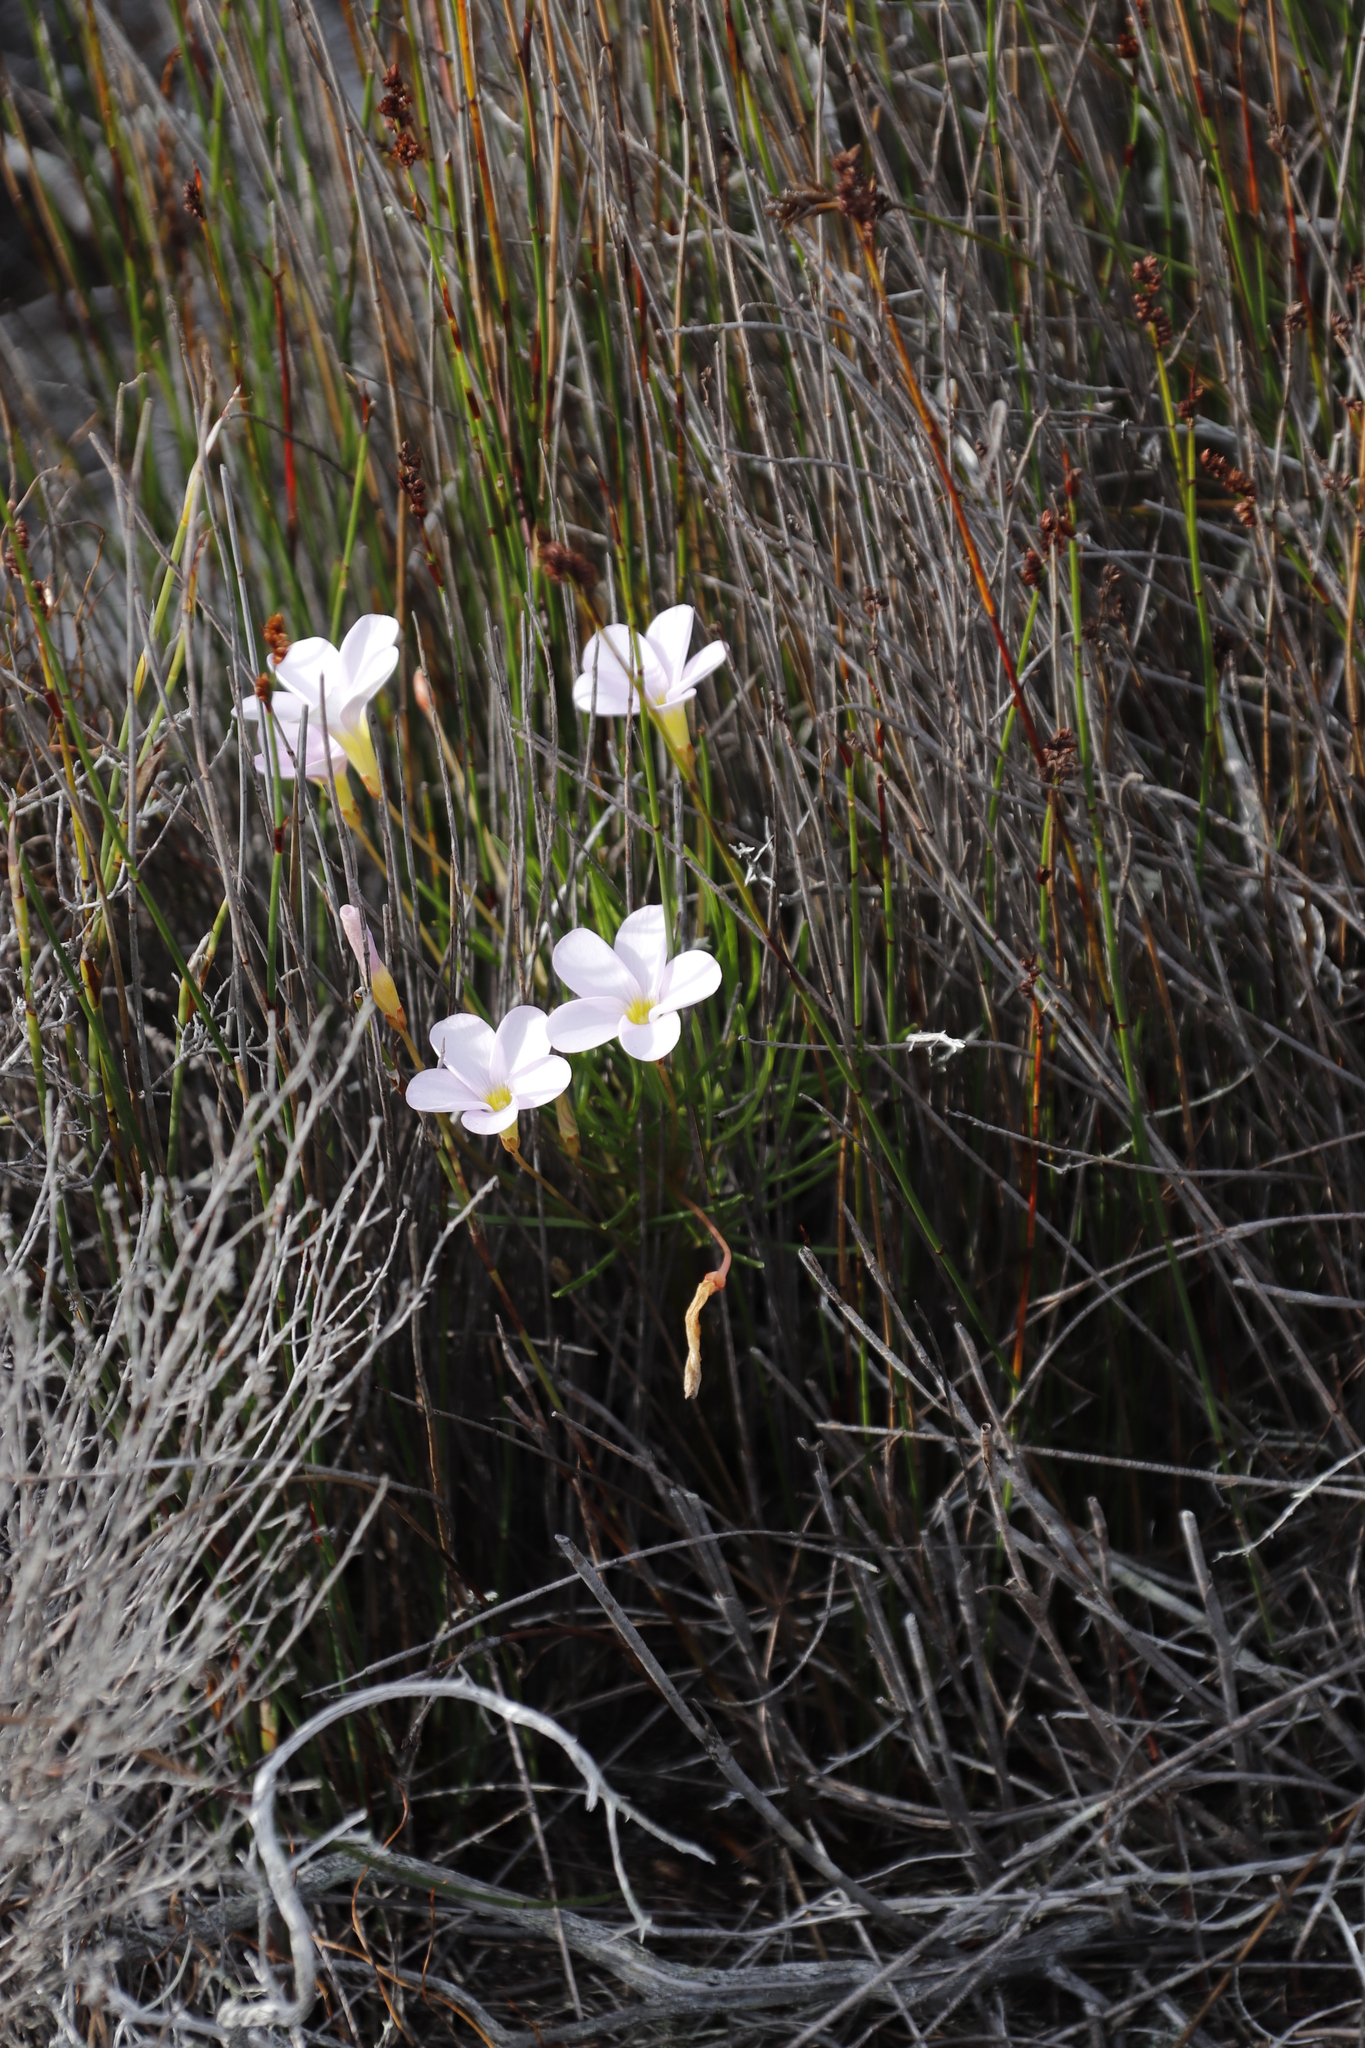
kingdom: Plantae
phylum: Tracheophyta
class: Magnoliopsida
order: Oxalidales
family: Oxalidaceae
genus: Oxalis
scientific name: Oxalis polyphylla
